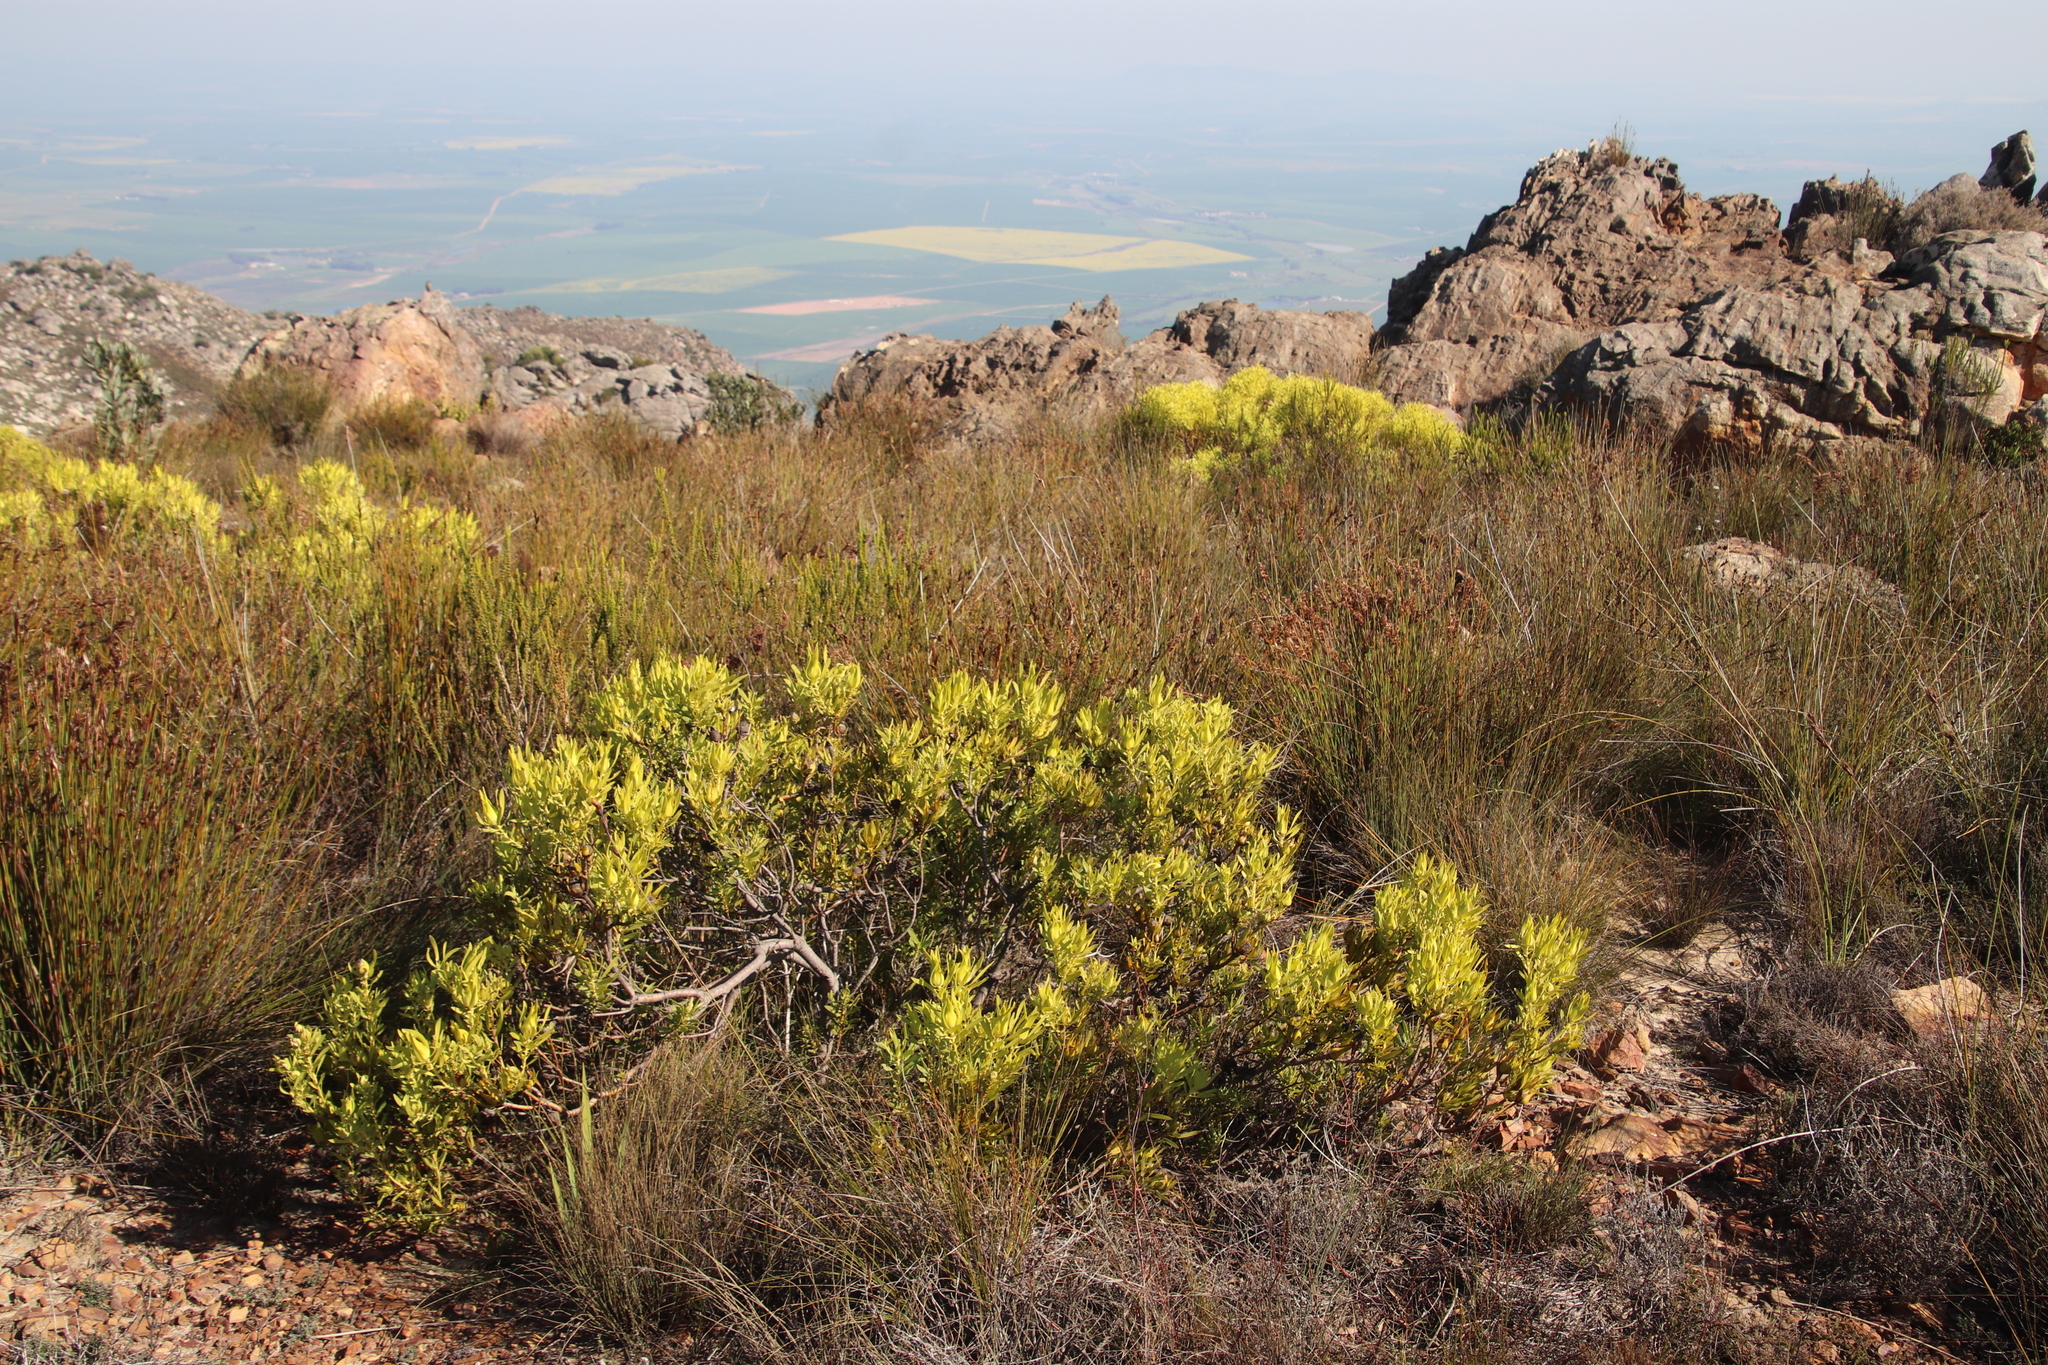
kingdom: Plantae
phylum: Tracheophyta
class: Magnoliopsida
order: Proteales
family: Proteaceae
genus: Leucadendron
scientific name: Leucadendron salignum
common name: Common sunshine conebush
